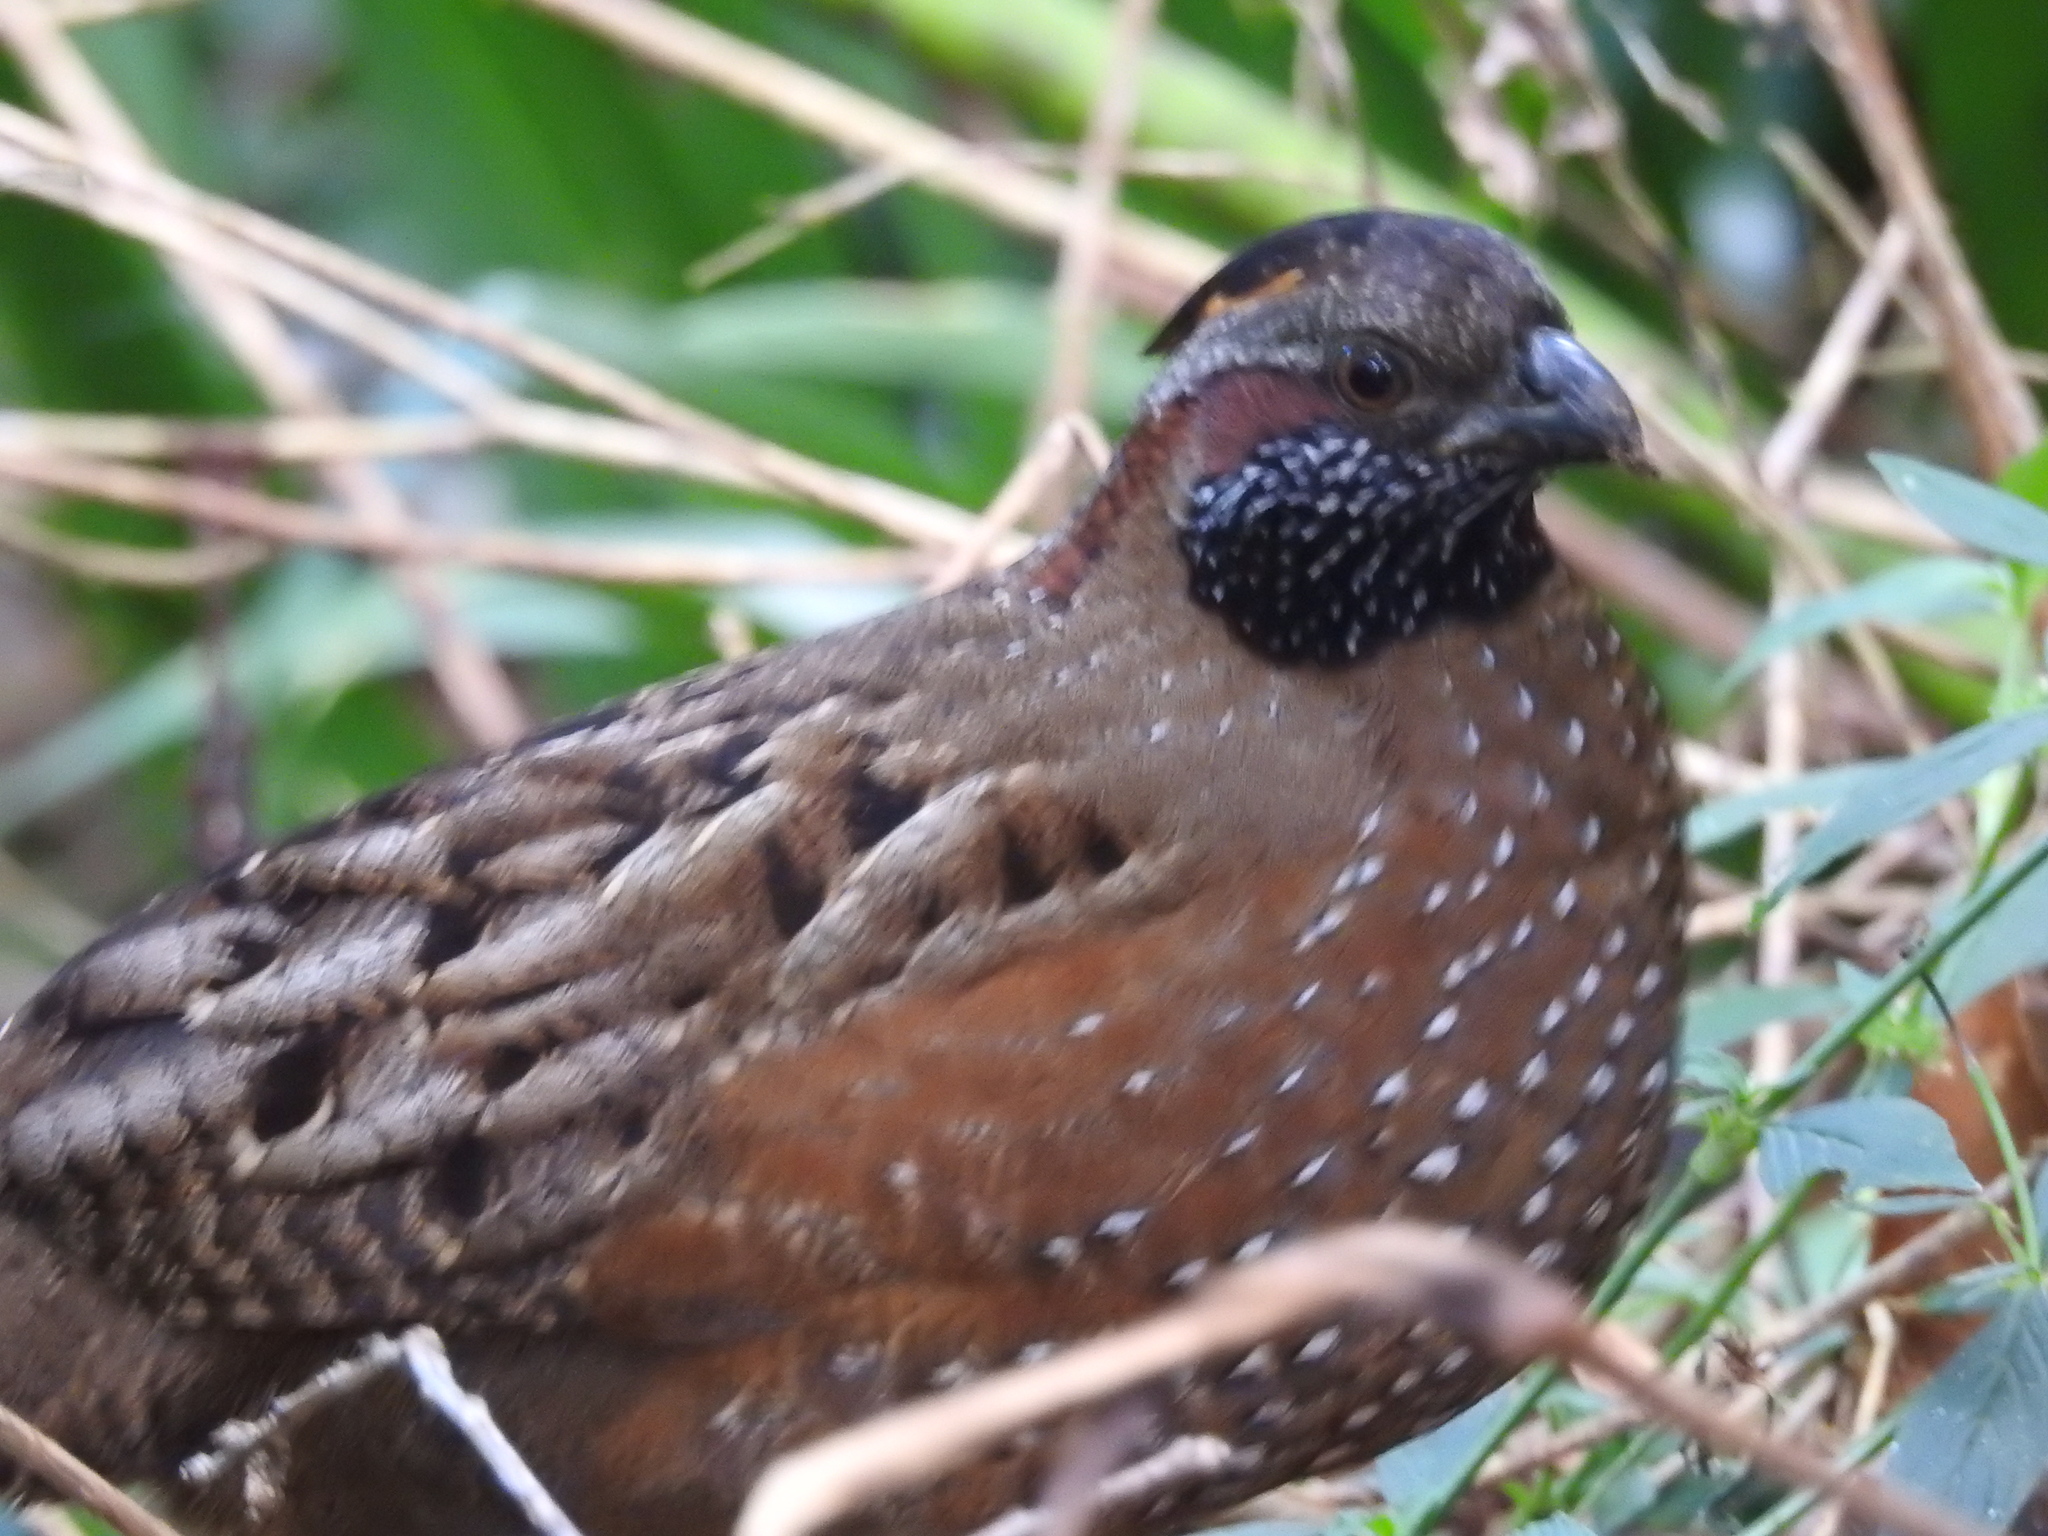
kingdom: Animalia
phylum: Chordata
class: Aves
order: Galliformes
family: Odontophoridae
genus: Odontophorus
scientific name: Odontophorus guttatus
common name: Spotted wood-quail
